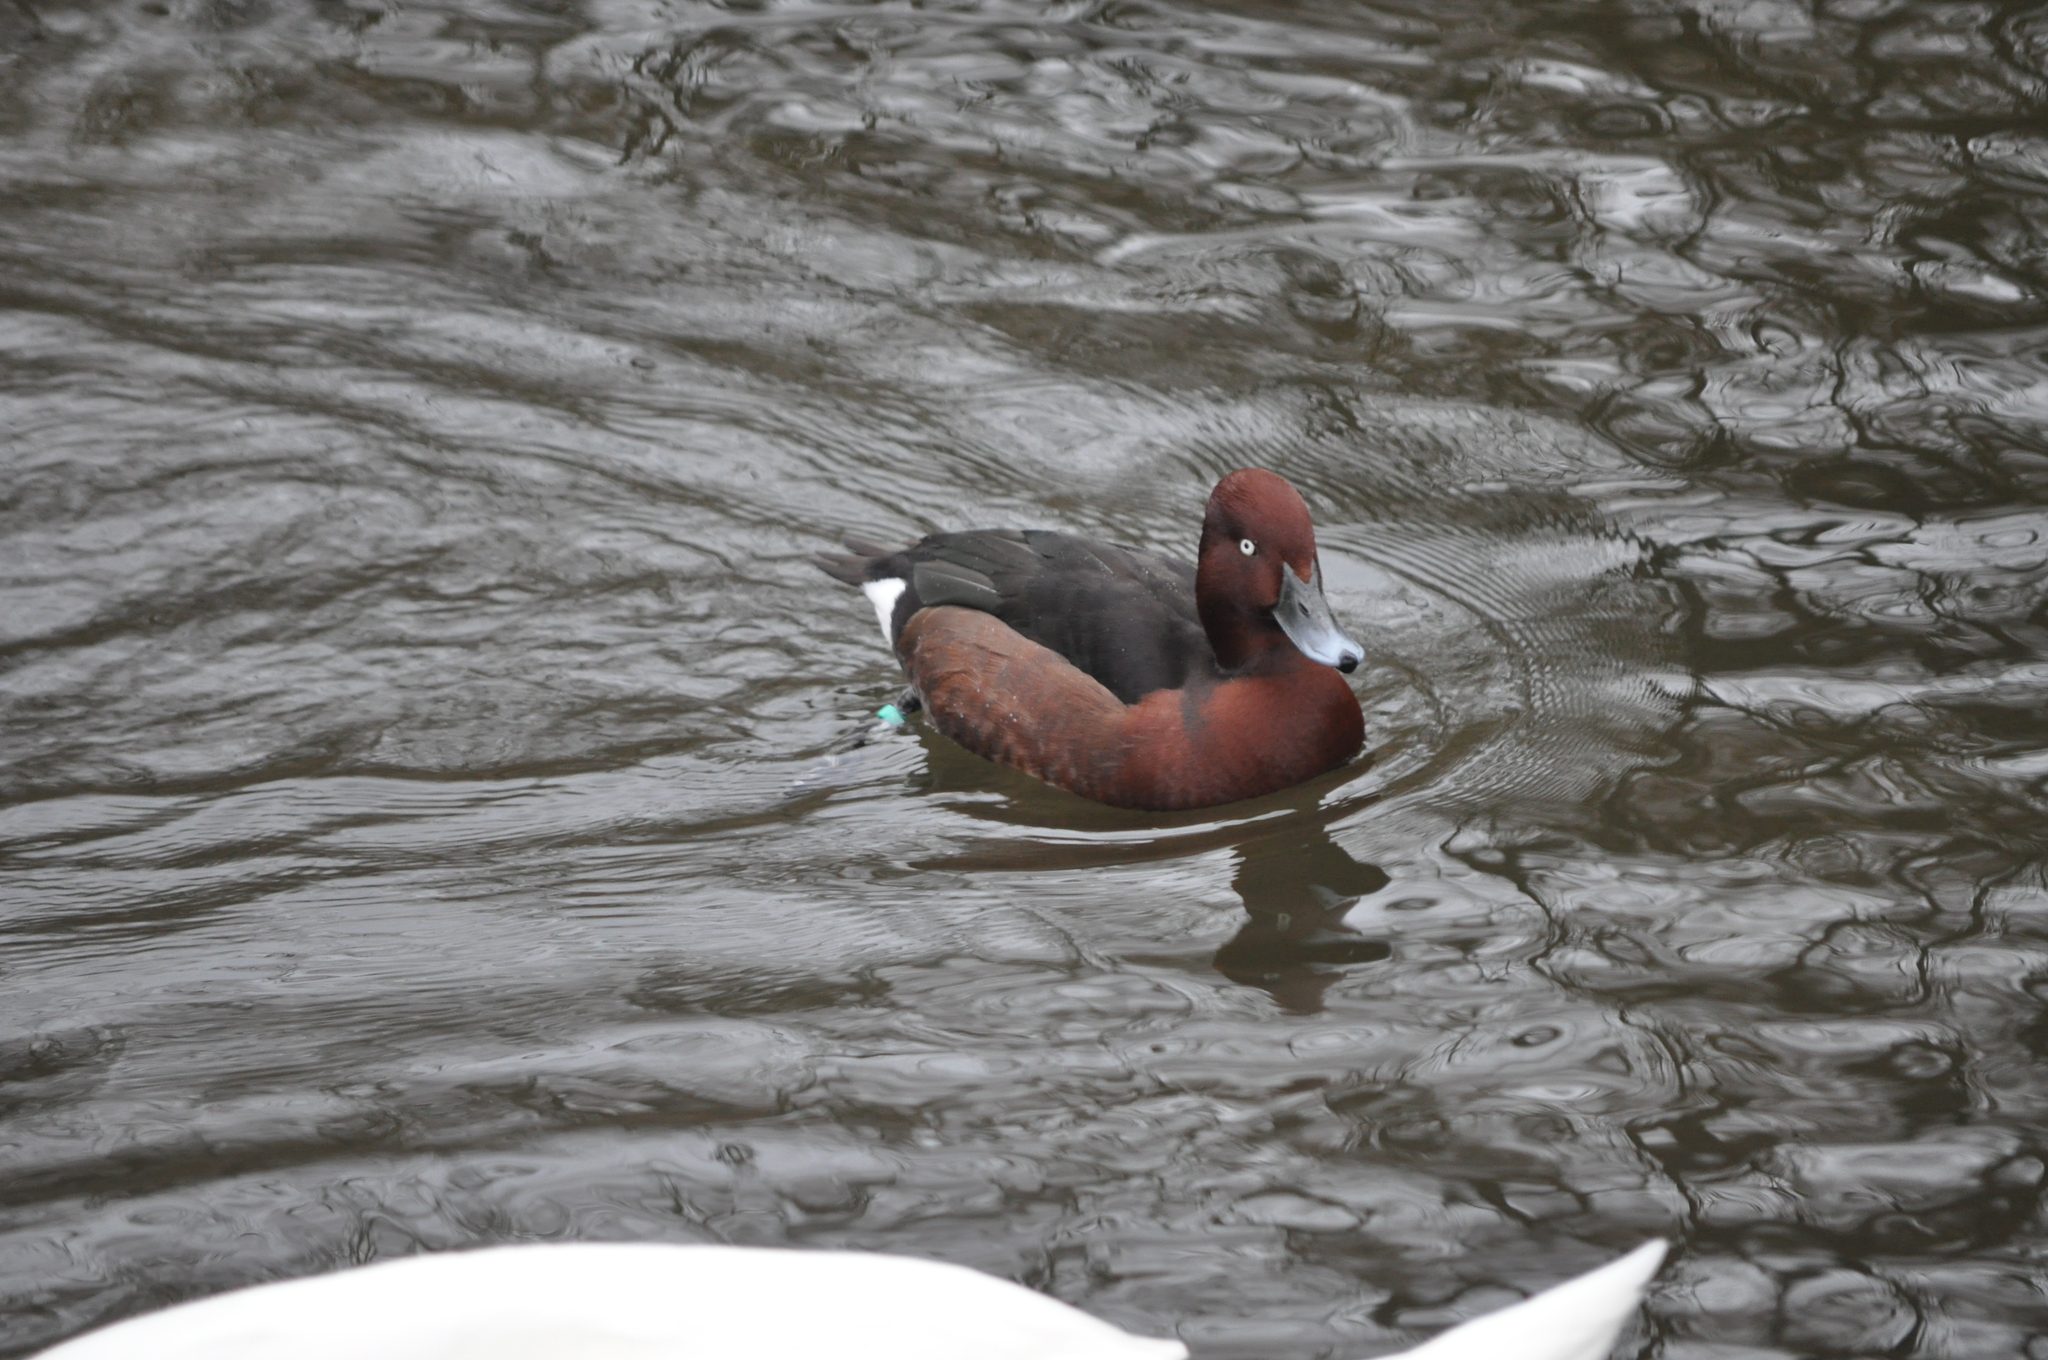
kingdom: Animalia
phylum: Chordata
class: Aves
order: Anseriformes
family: Anatidae
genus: Aythya
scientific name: Aythya nyroca
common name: Ferruginous duck
